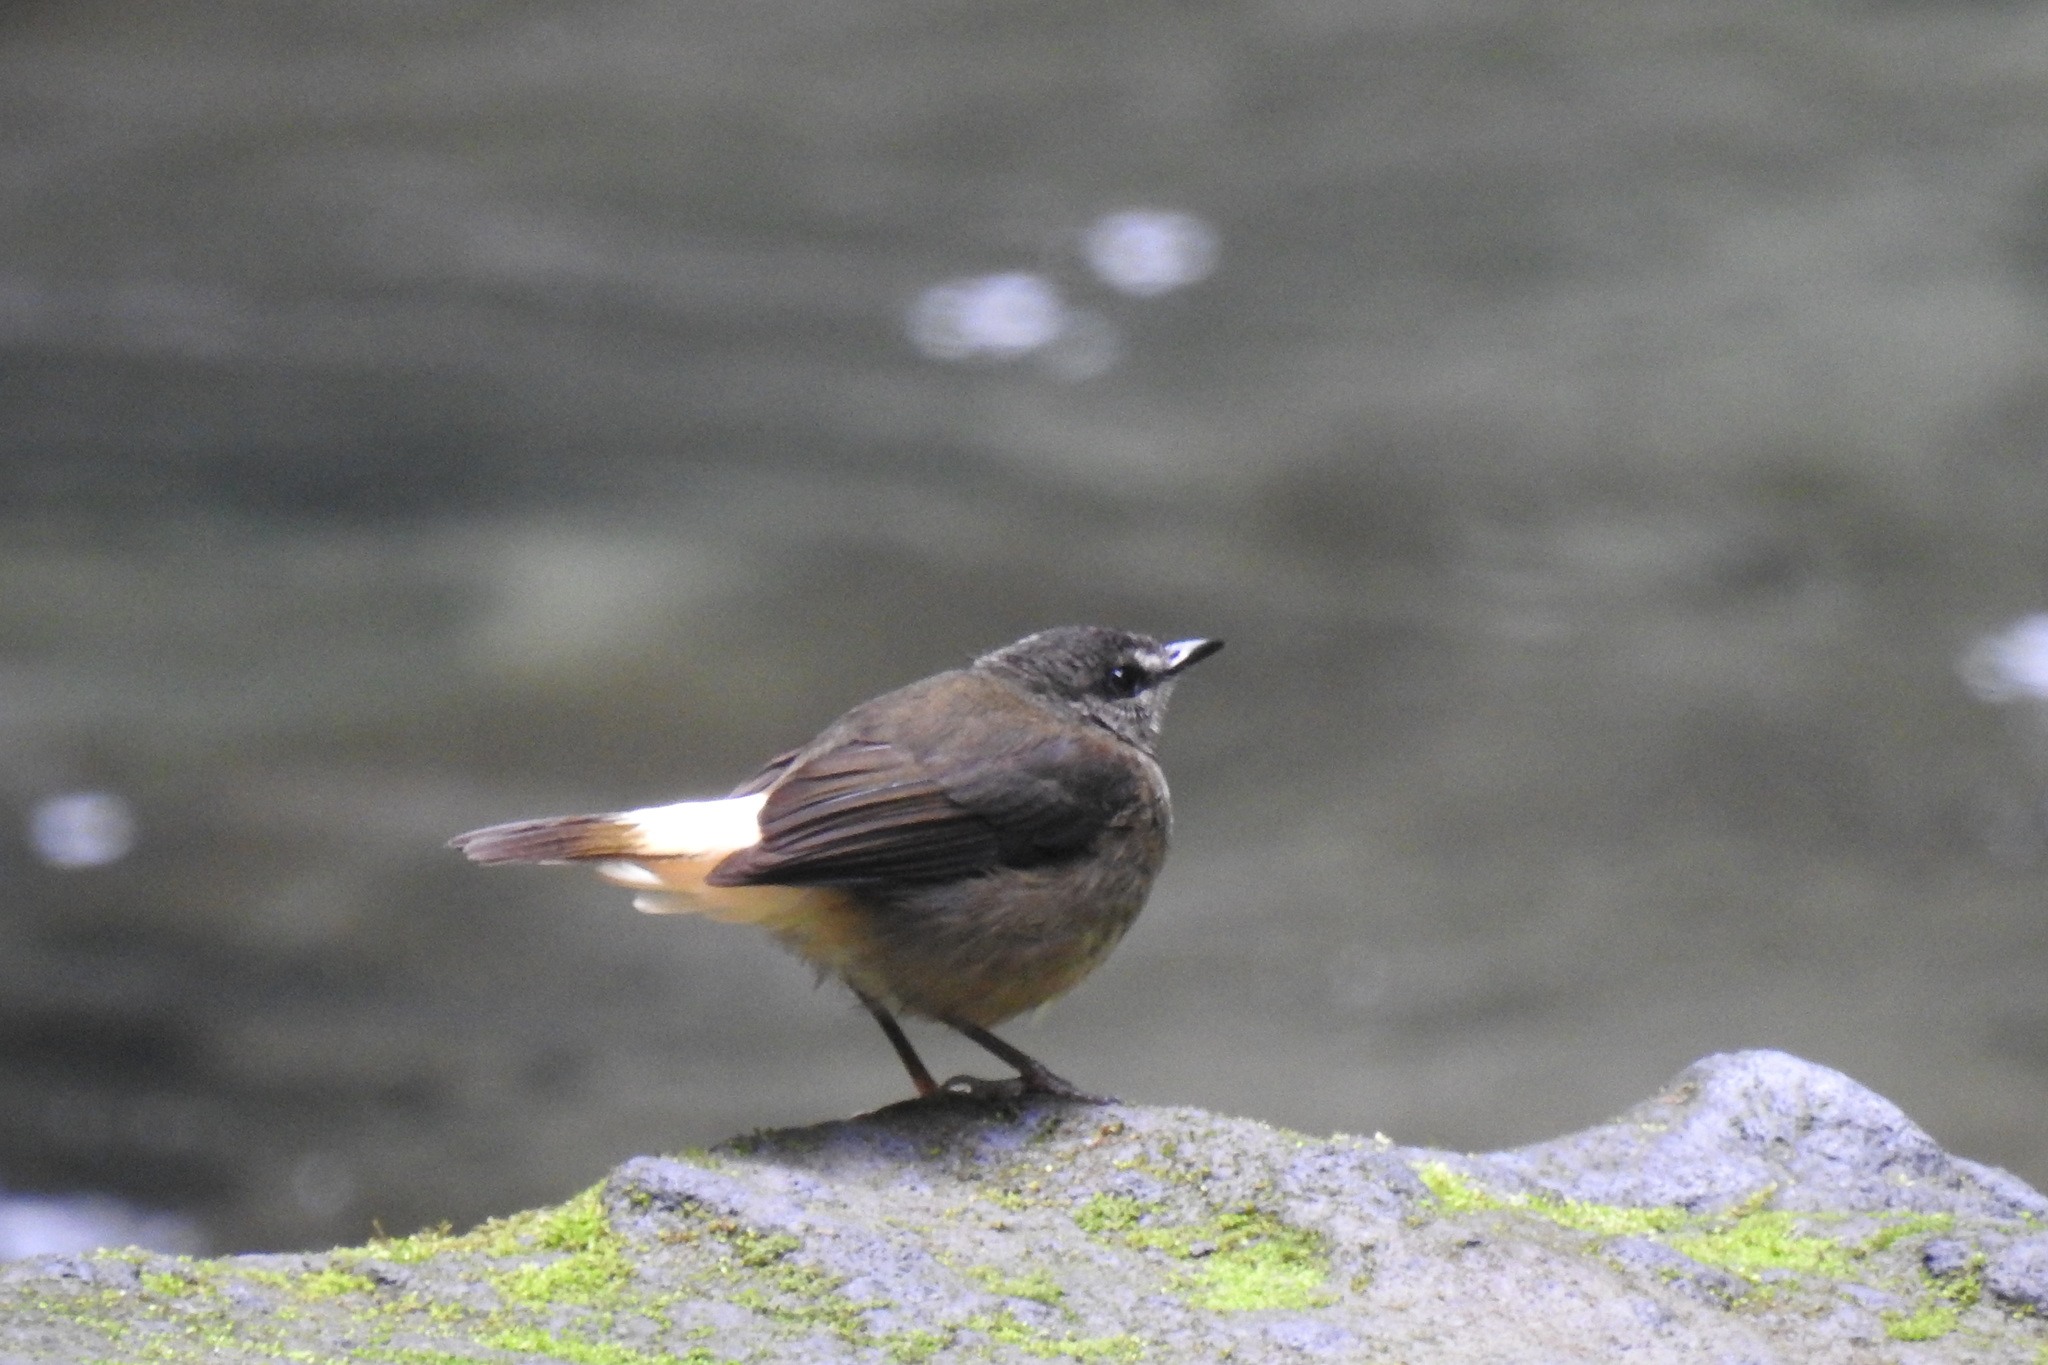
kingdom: Animalia
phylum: Chordata
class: Aves
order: Passeriformes
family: Parulidae
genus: Myiothlypis
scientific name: Myiothlypis fulvicauda
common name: Buff-rumped warbler
